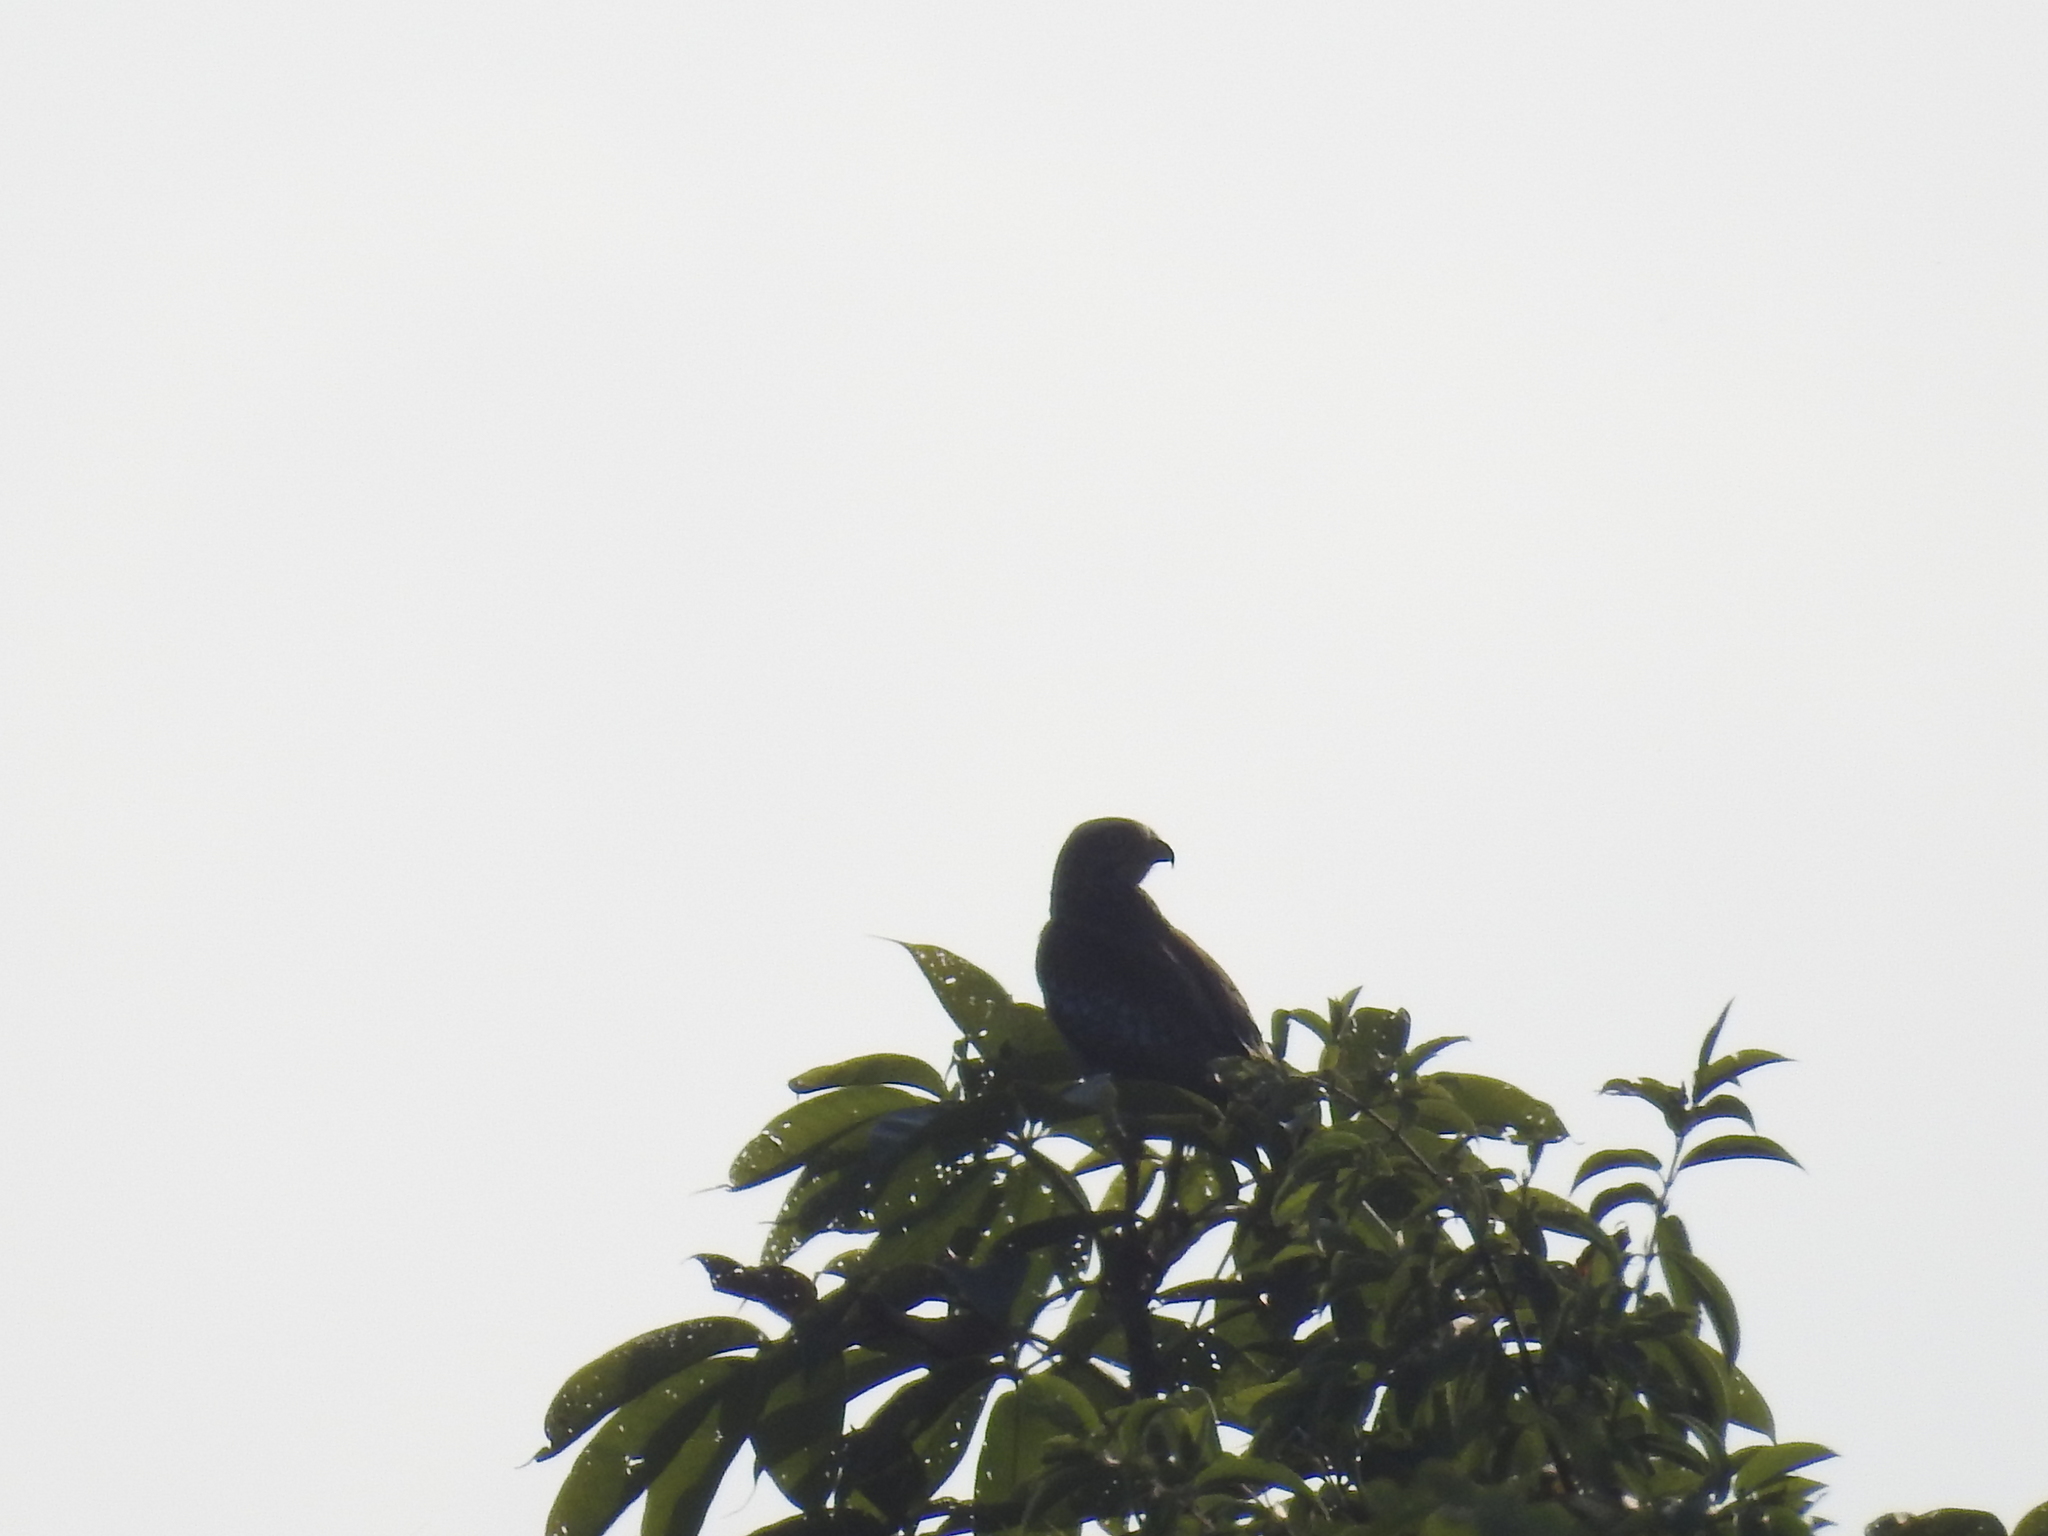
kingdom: Animalia
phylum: Chordata
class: Aves
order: Accipitriformes
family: Accipitridae
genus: Butastur
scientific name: Butastur teesa
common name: White-eyed buzzard
